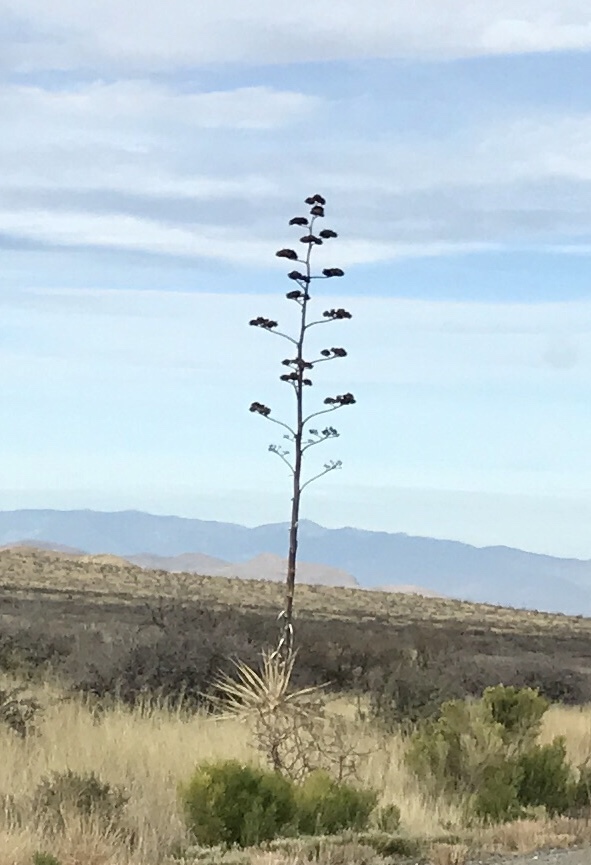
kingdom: Plantae
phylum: Tracheophyta
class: Liliopsida
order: Asparagales
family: Asparagaceae
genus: Agave
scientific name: Agave palmeri
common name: Palmer agave
